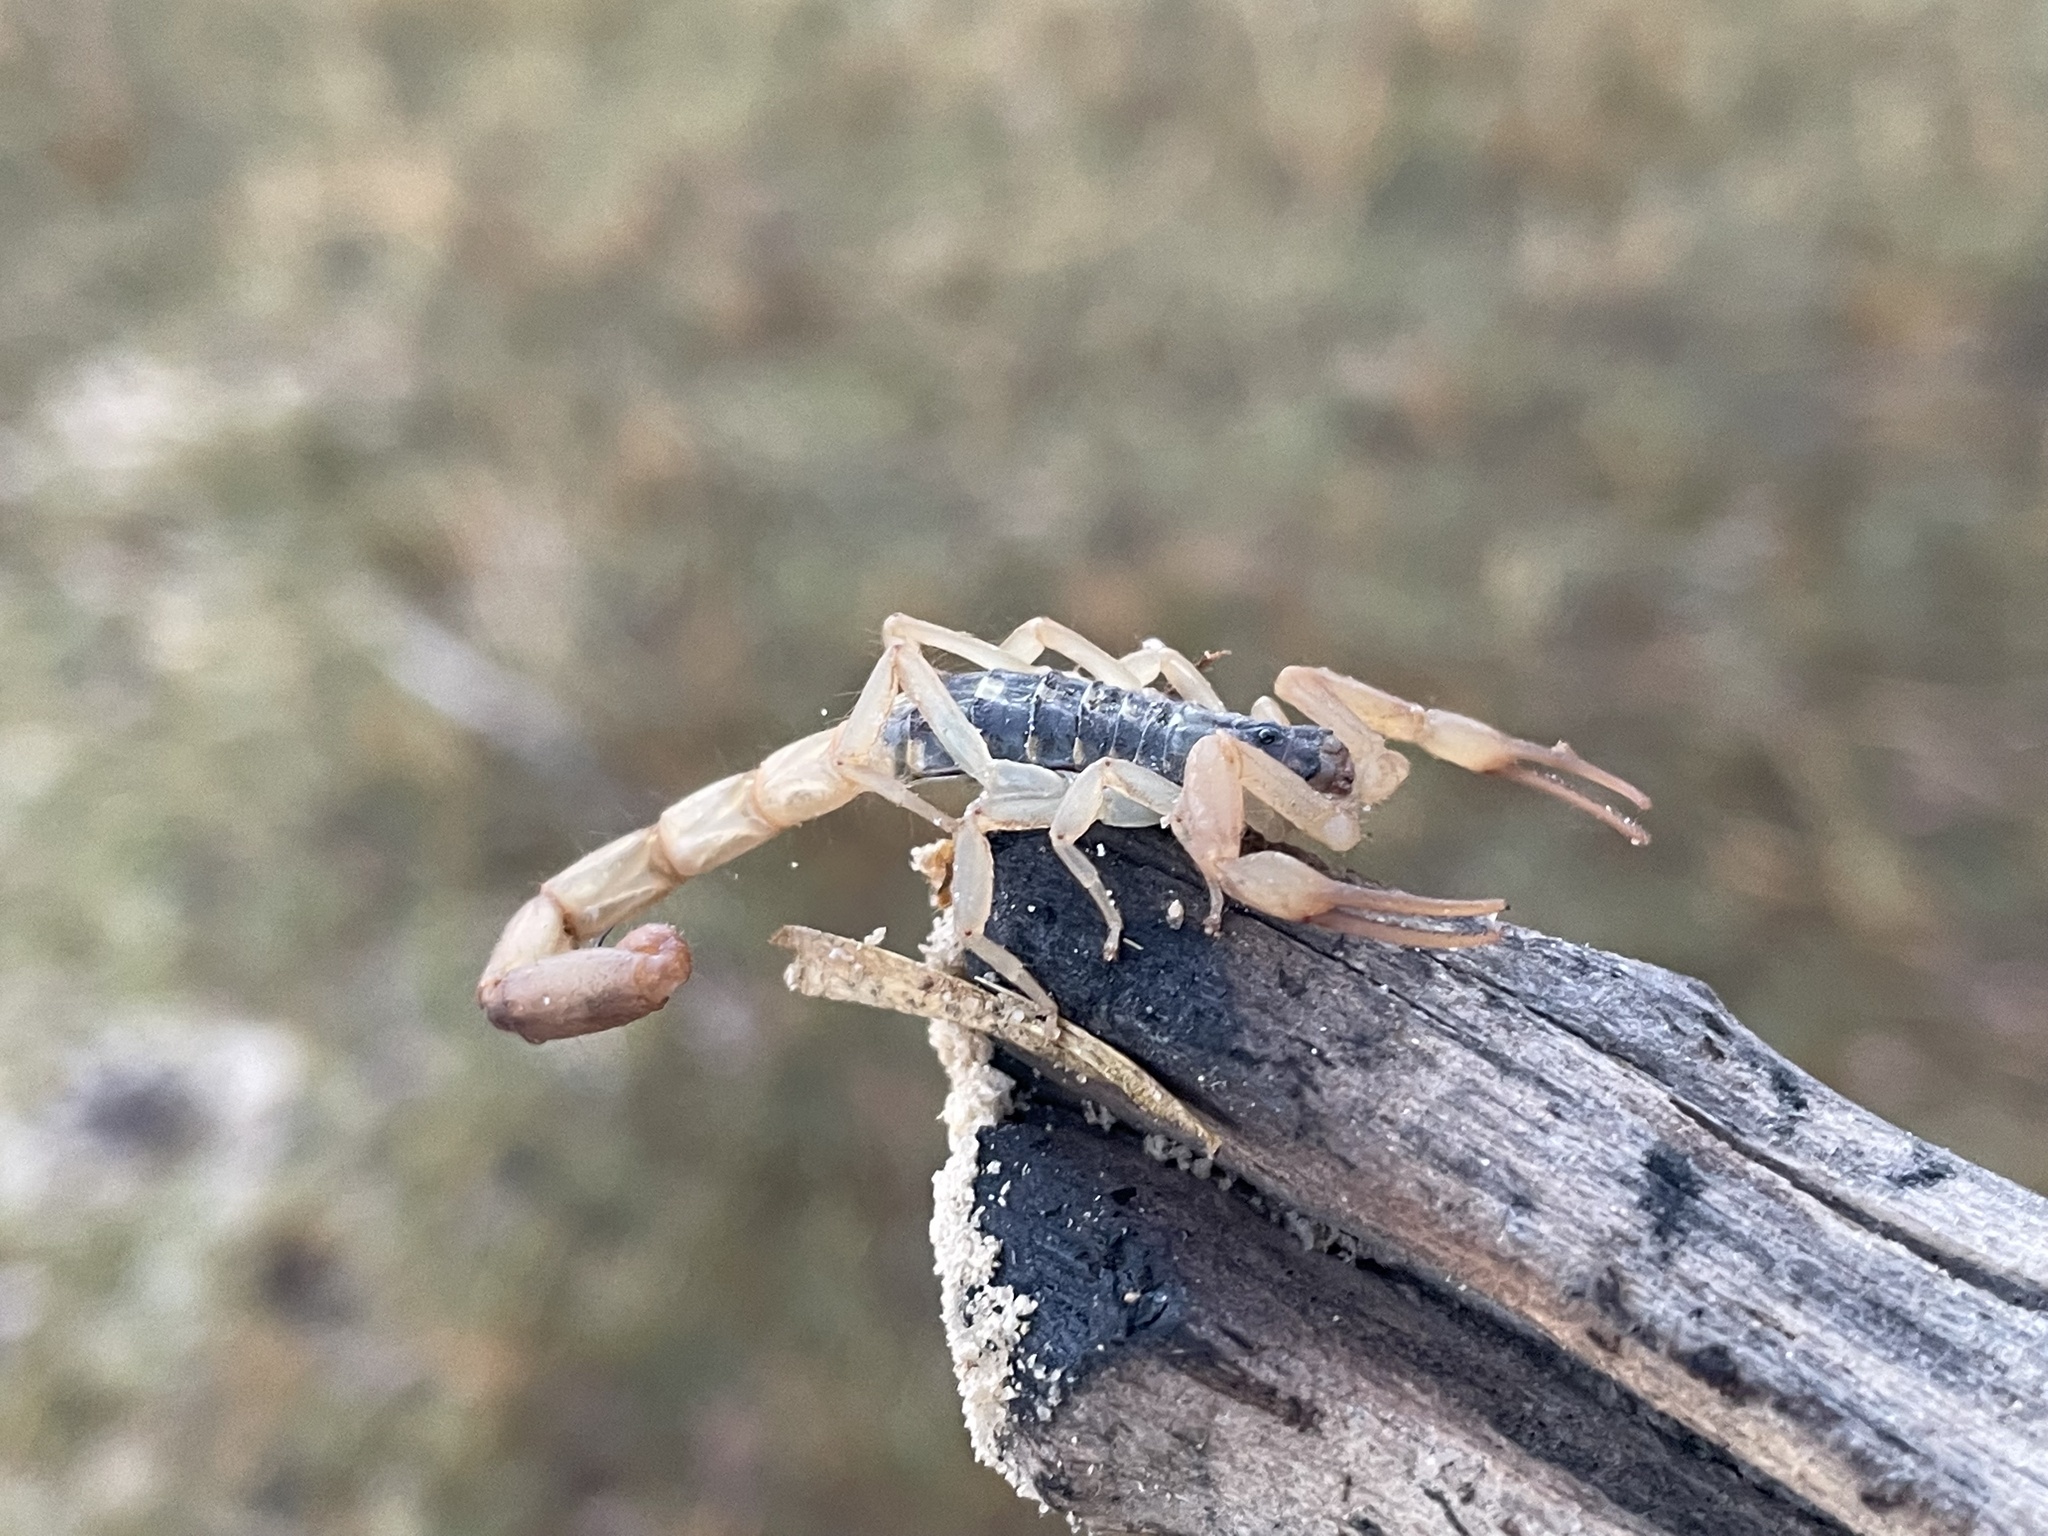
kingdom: Animalia
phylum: Arthropoda
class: Arachnida
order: Scorpiones
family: Buthidae
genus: Uroplectes
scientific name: Uroplectes vittatus
